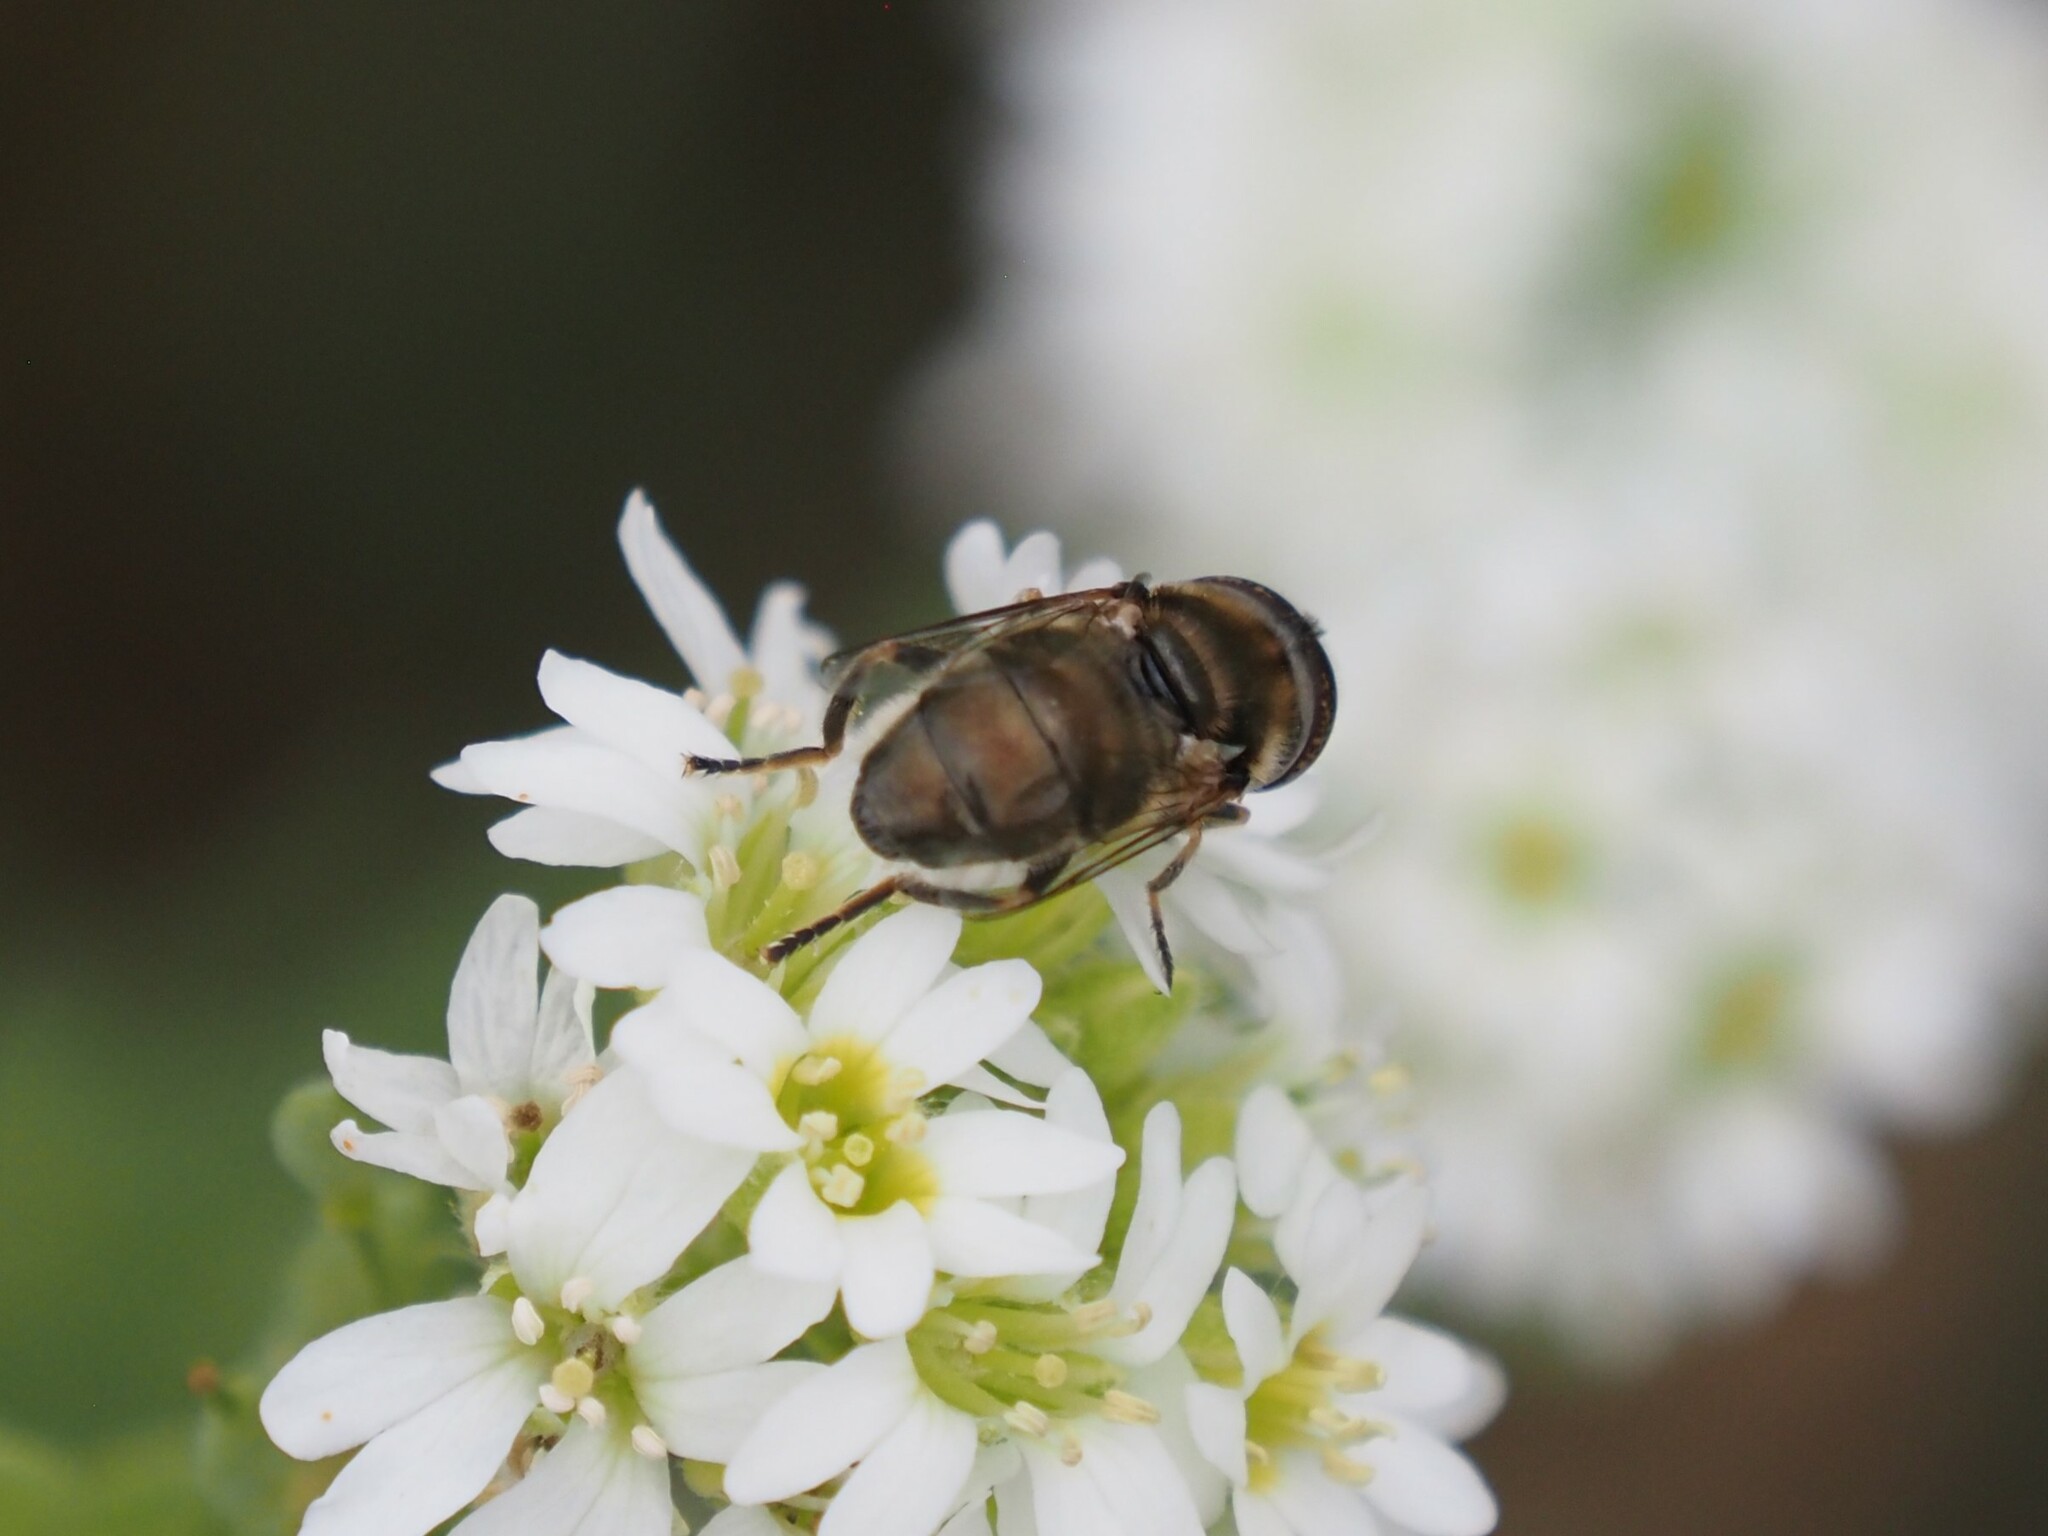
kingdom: Animalia
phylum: Arthropoda
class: Insecta
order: Diptera
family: Syrphidae
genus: Eristalinus
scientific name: Eristalinus aeneus
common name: Syrphid fly
